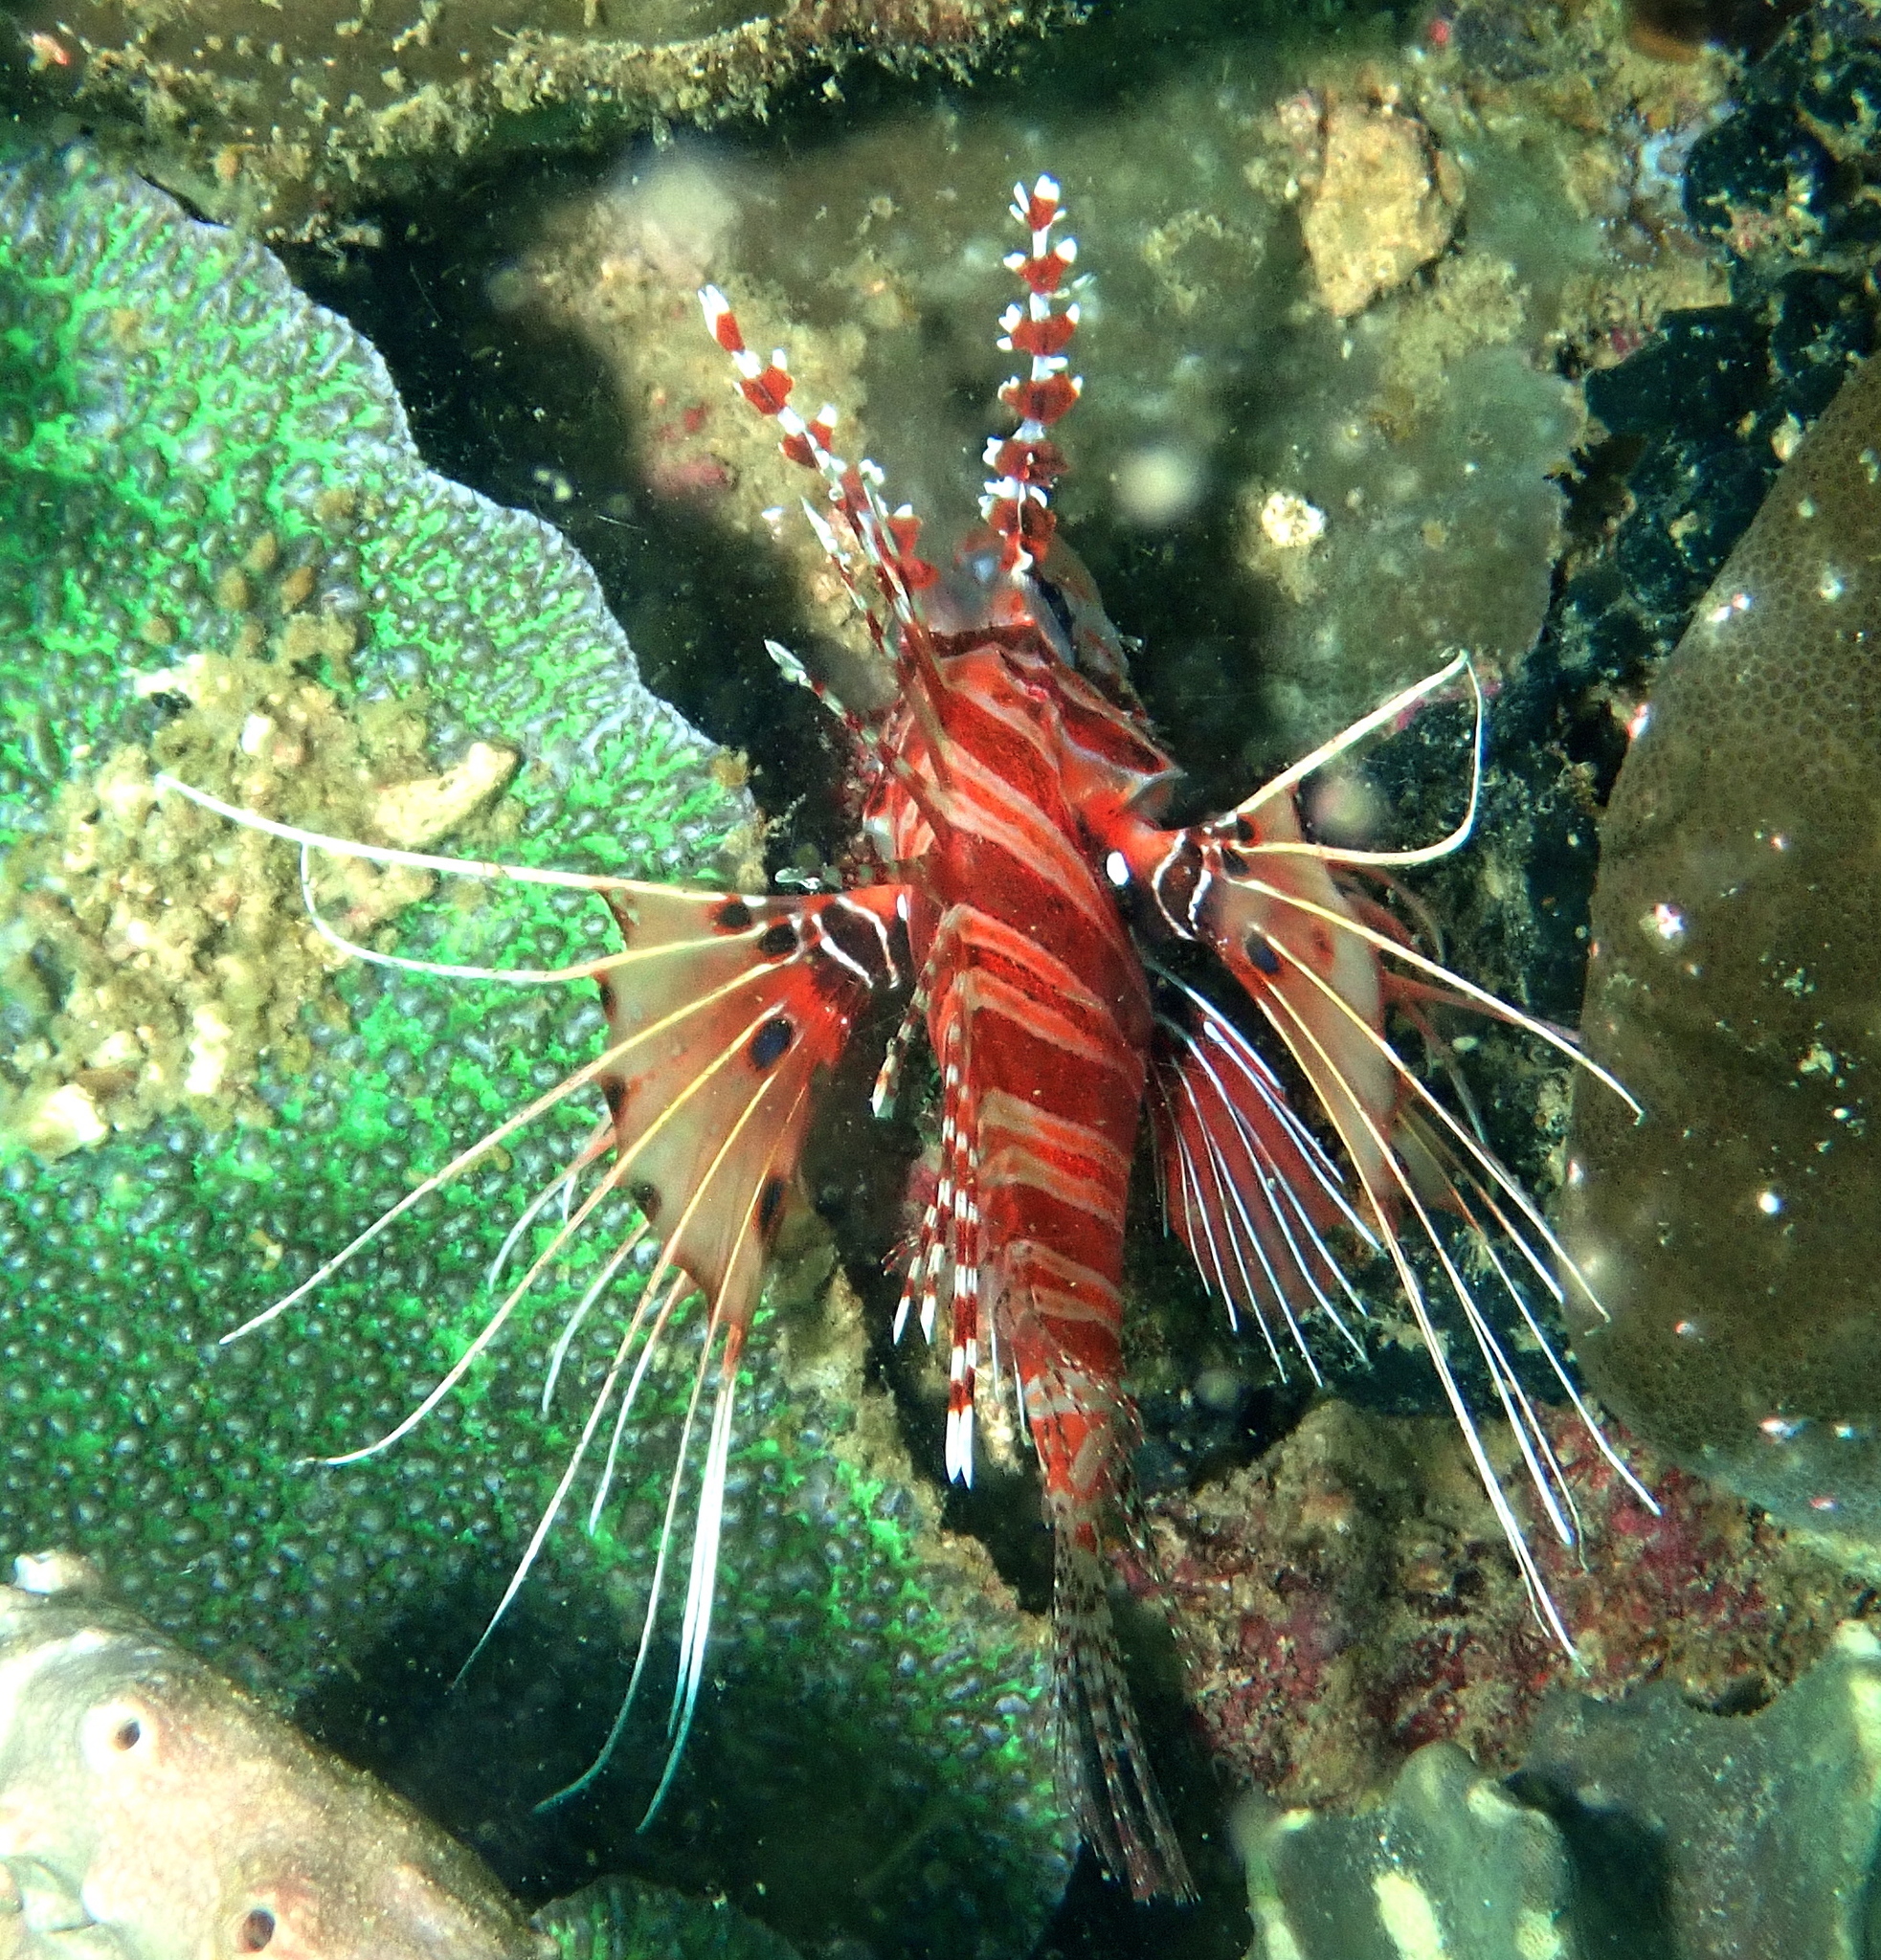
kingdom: Animalia
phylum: Chordata
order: Scorpaeniformes
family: Scorpaenidae
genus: Pterois
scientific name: Pterois antennata
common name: Spotfin lionfish
